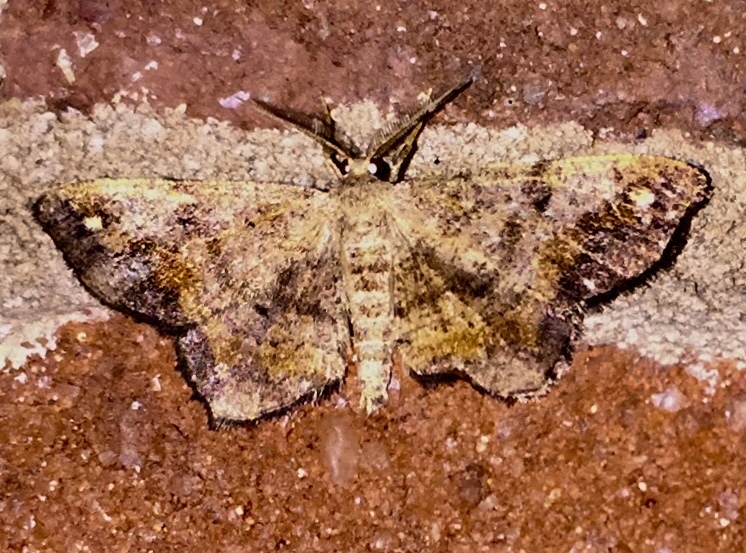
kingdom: Animalia
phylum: Arthropoda
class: Insecta
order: Lepidoptera
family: Geometridae
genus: Hypagyrtis
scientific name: Hypagyrtis unipunctata
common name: One-spotted variant
